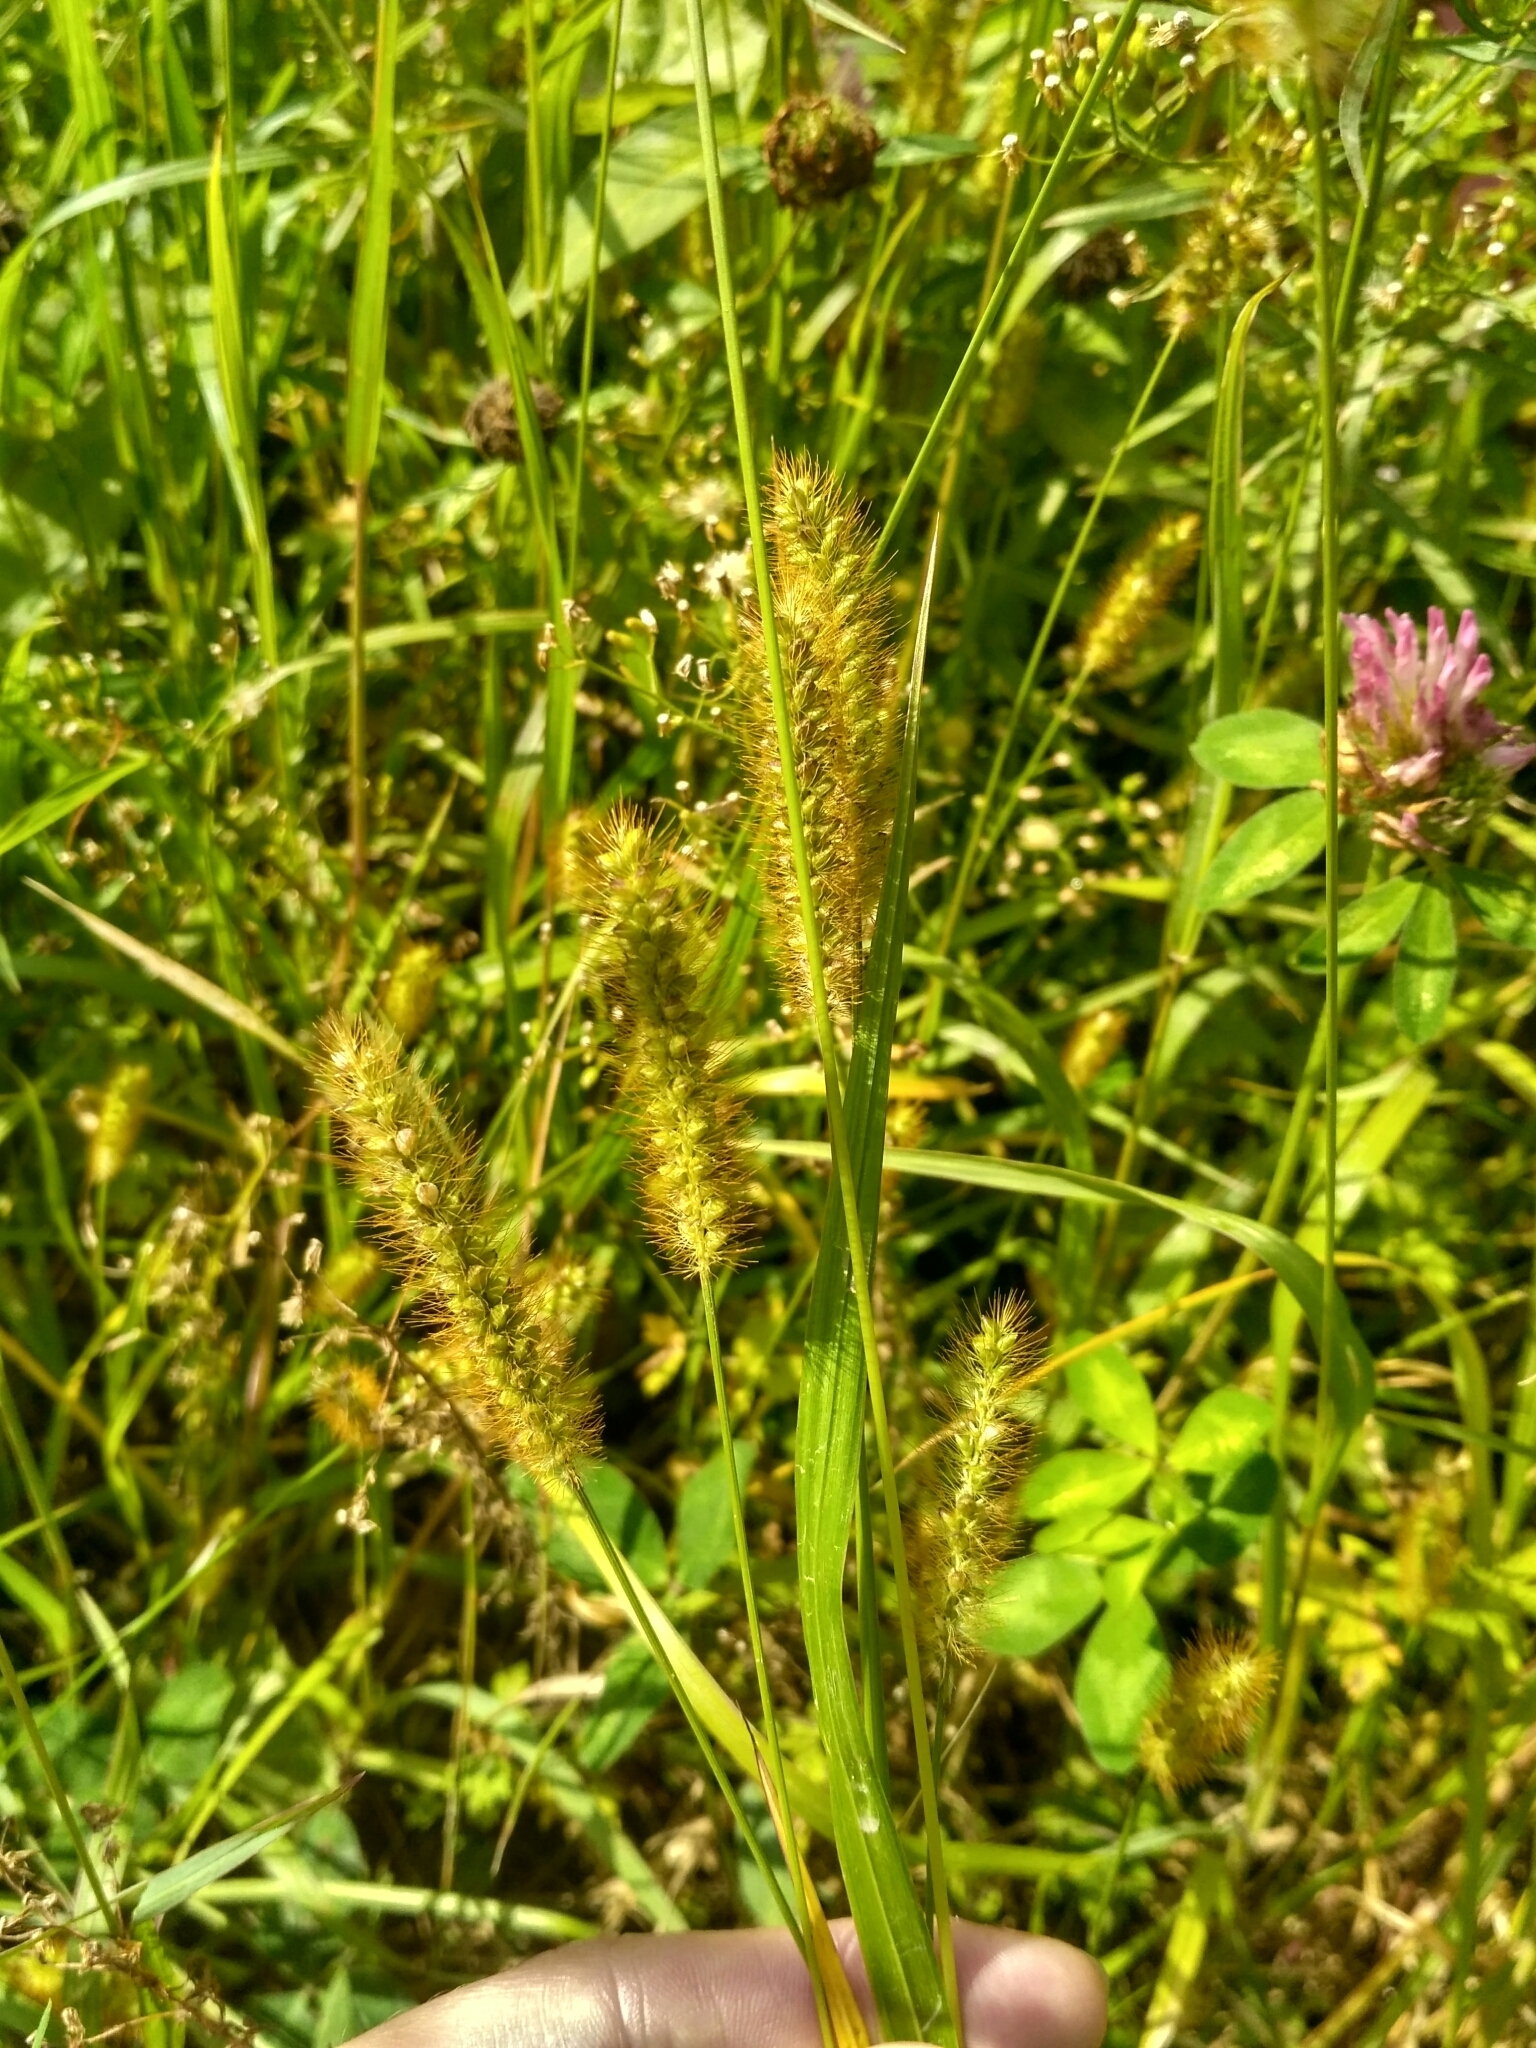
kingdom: Plantae
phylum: Tracheophyta
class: Liliopsida
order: Poales
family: Poaceae
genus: Setaria
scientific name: Setaria pumila
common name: Yellow bristle-grass
